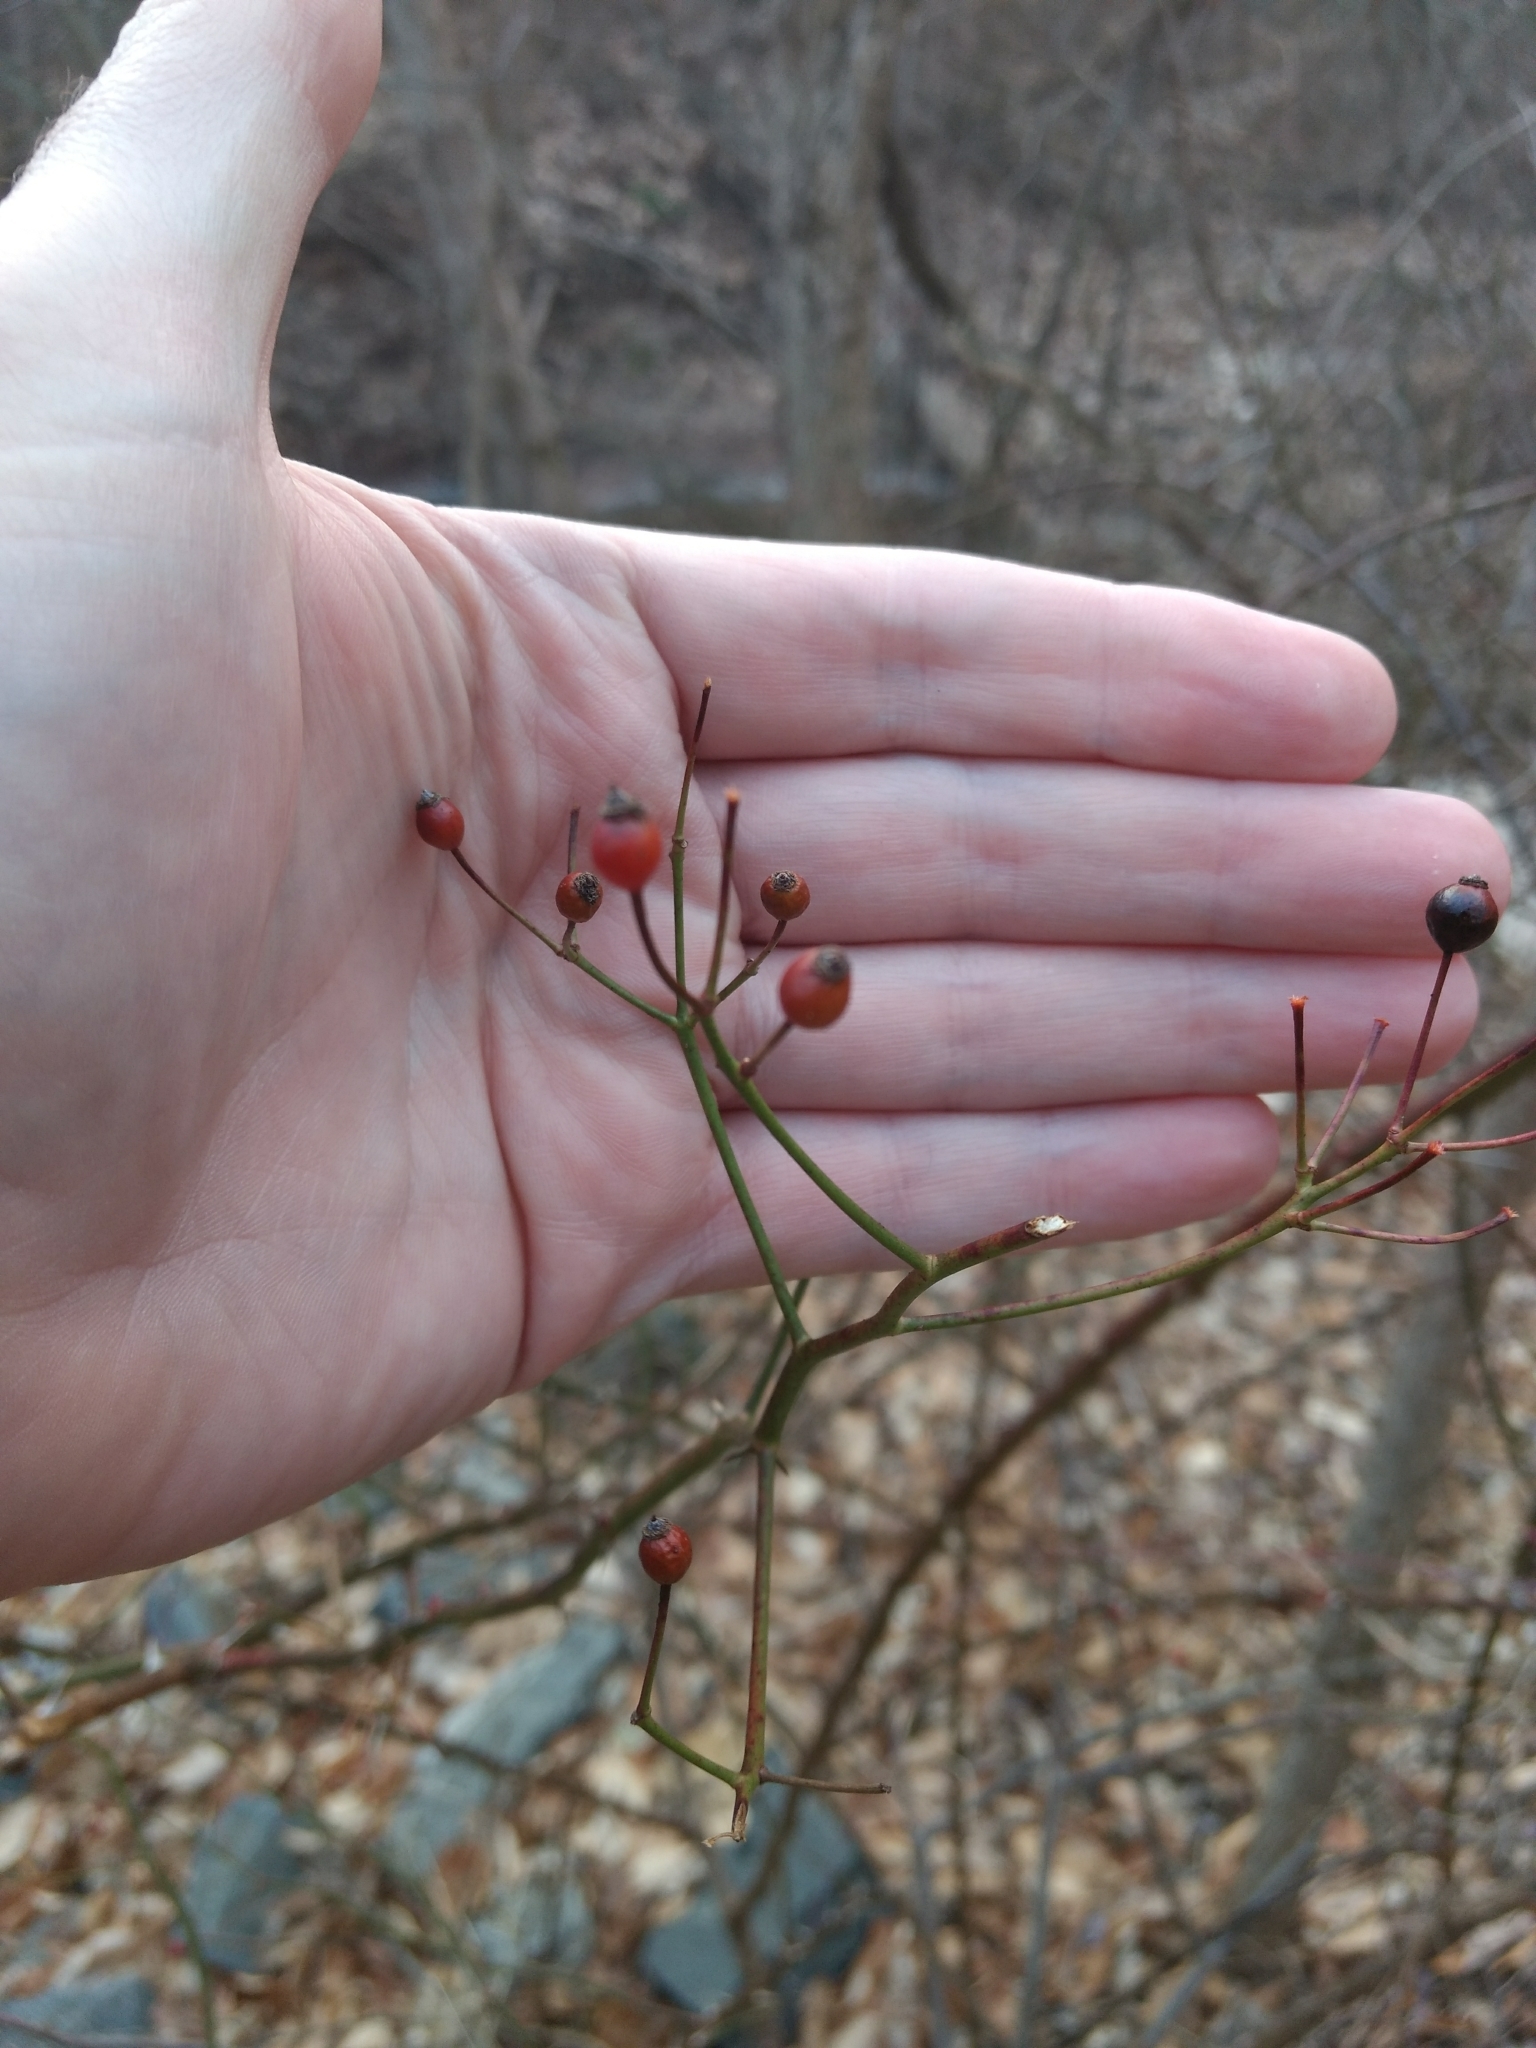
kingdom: Plantae
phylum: Tracheophyta
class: Magnoliopsida
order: Rosales
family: Rosaceae
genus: Rosa
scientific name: Rosa multiflora
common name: Multiflora rose
